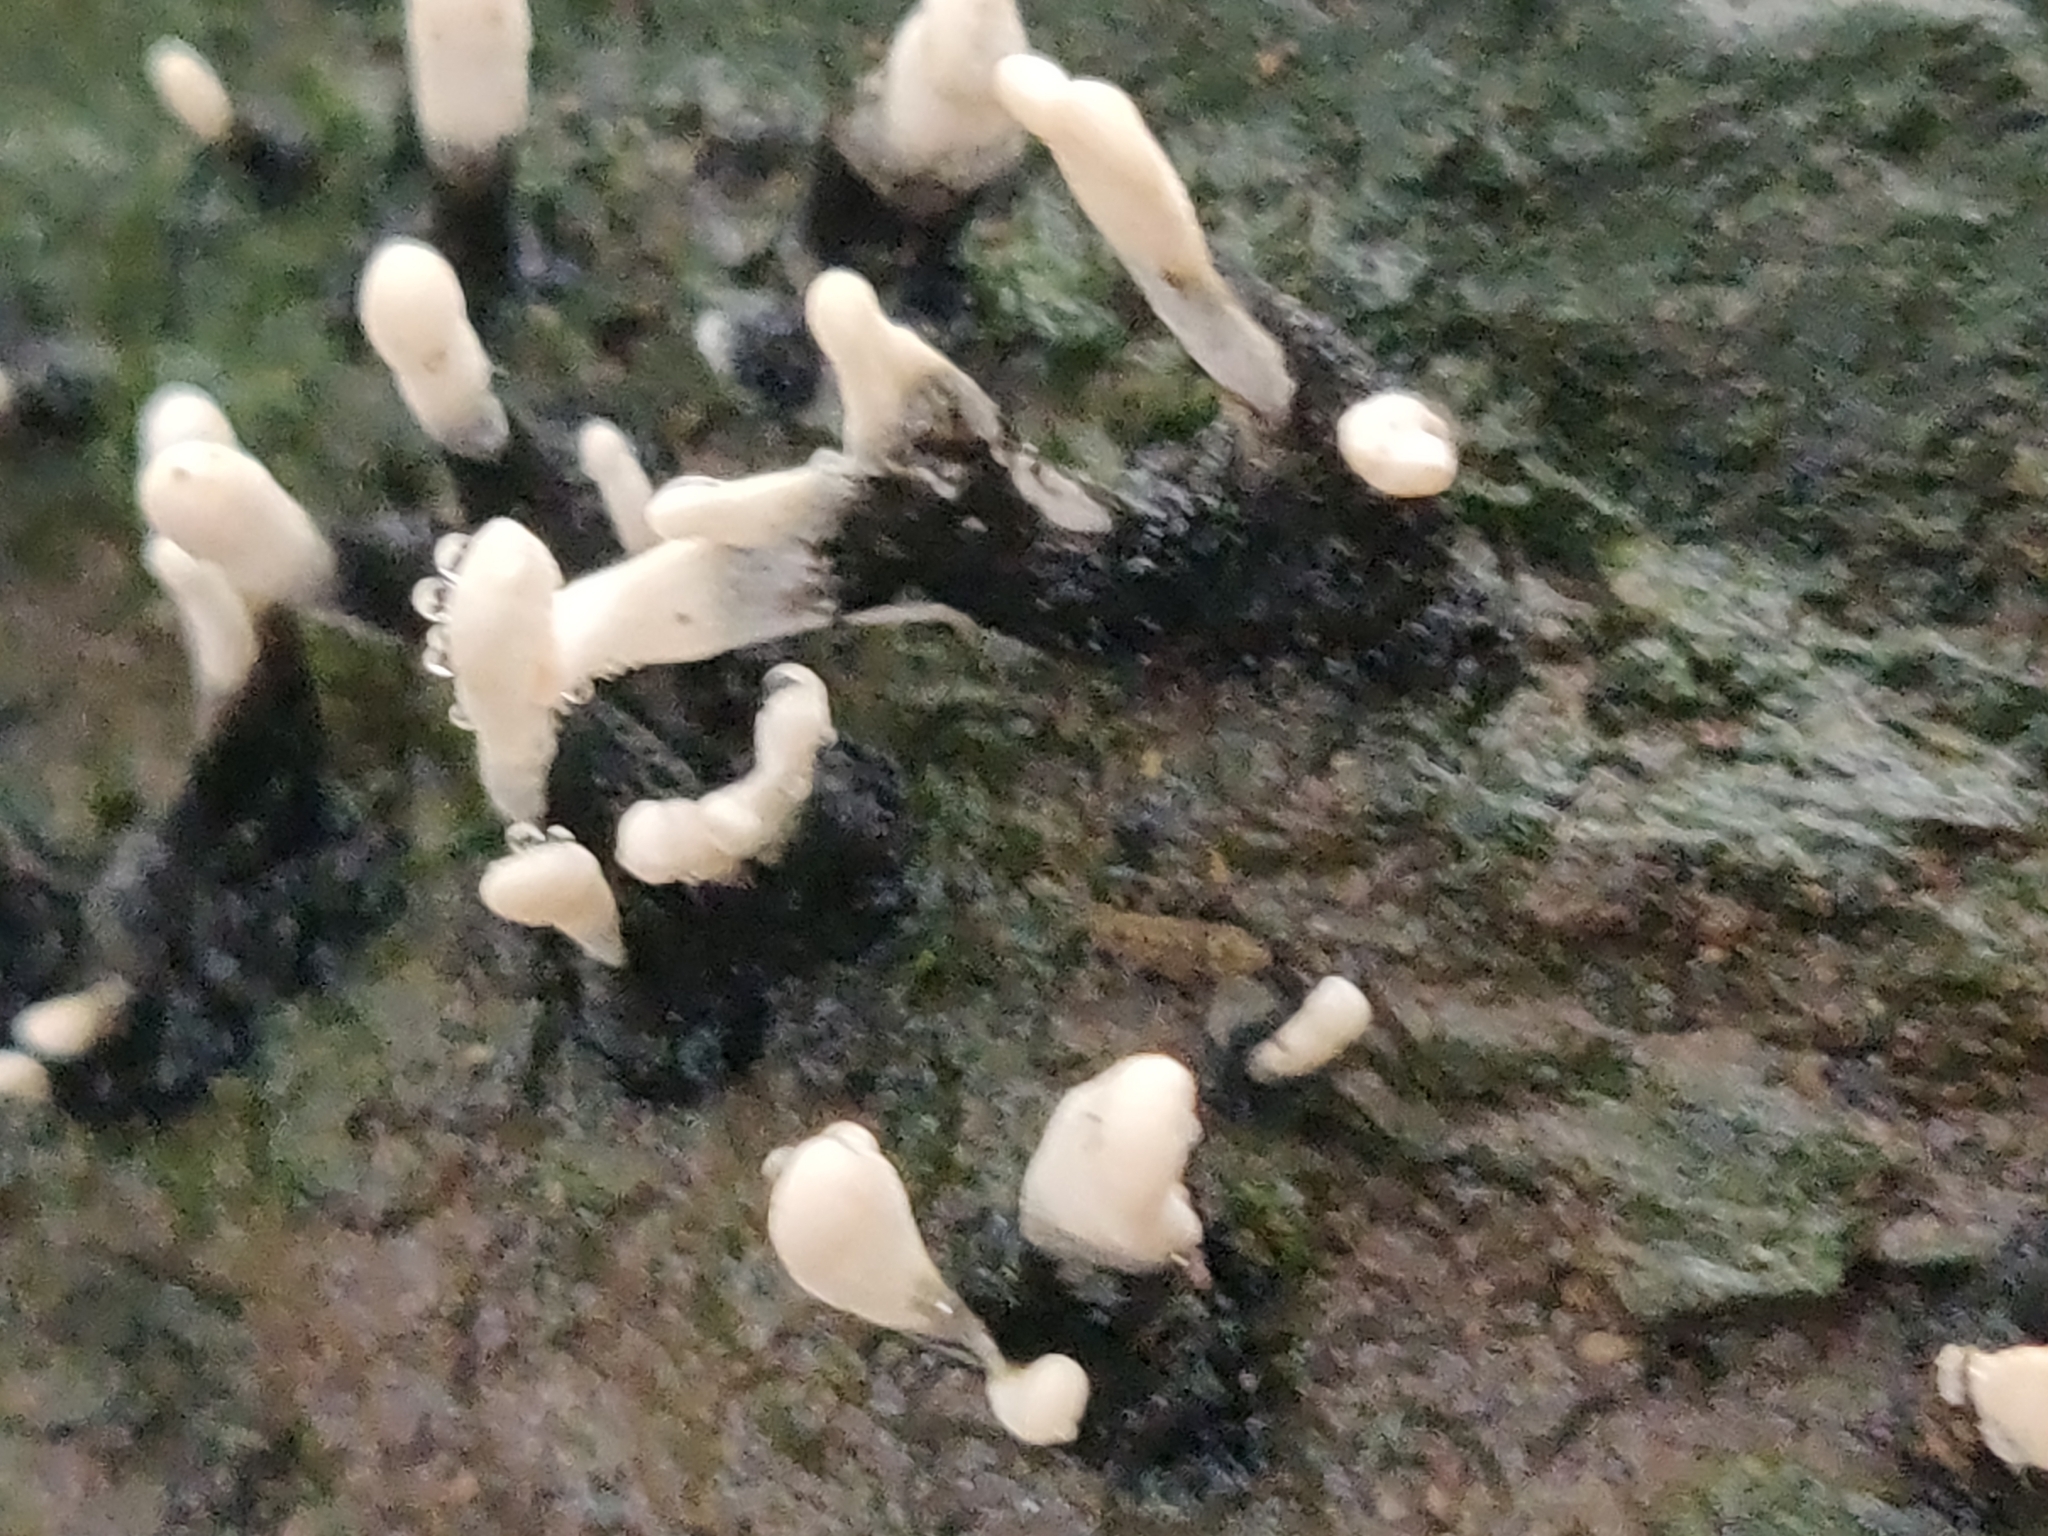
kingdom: Fungi
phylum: Ascomycota
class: Sordariomycetes
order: Xylariales
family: Xylariaceae
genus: Xylaria
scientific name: Xylaria hypoxylon
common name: Candle-snuff fungus
